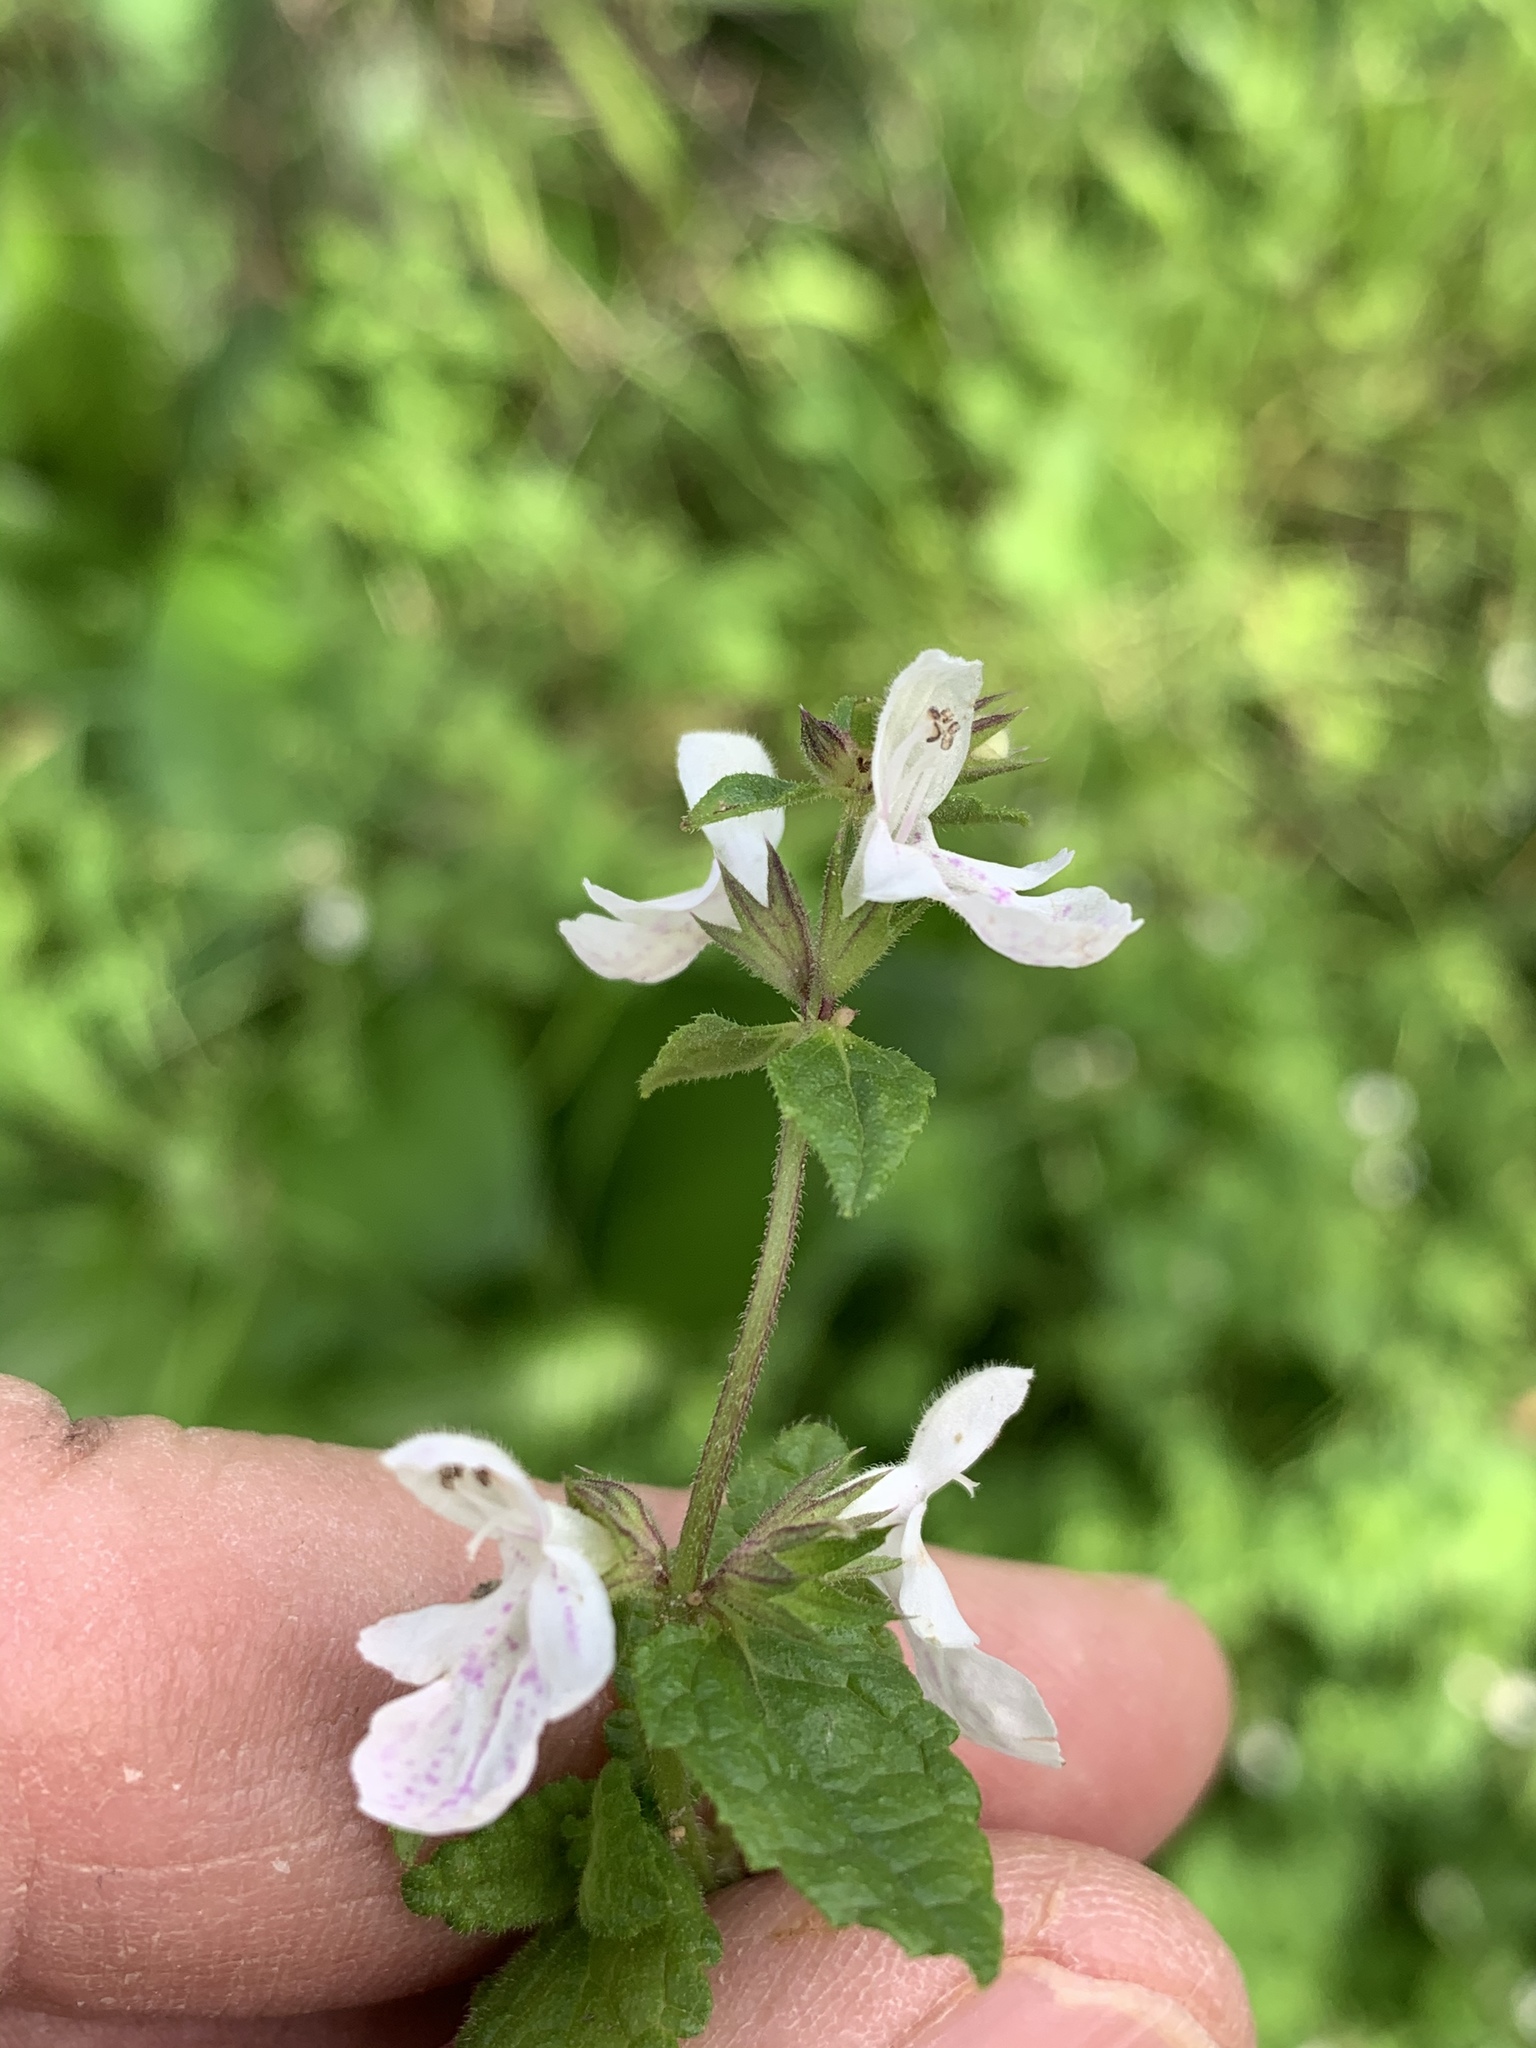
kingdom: Plantae
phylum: Tracheophyta
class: Magnoliopsida
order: Lamiales
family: Lamiaceae
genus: Stachys
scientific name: Stachys aethiopica
